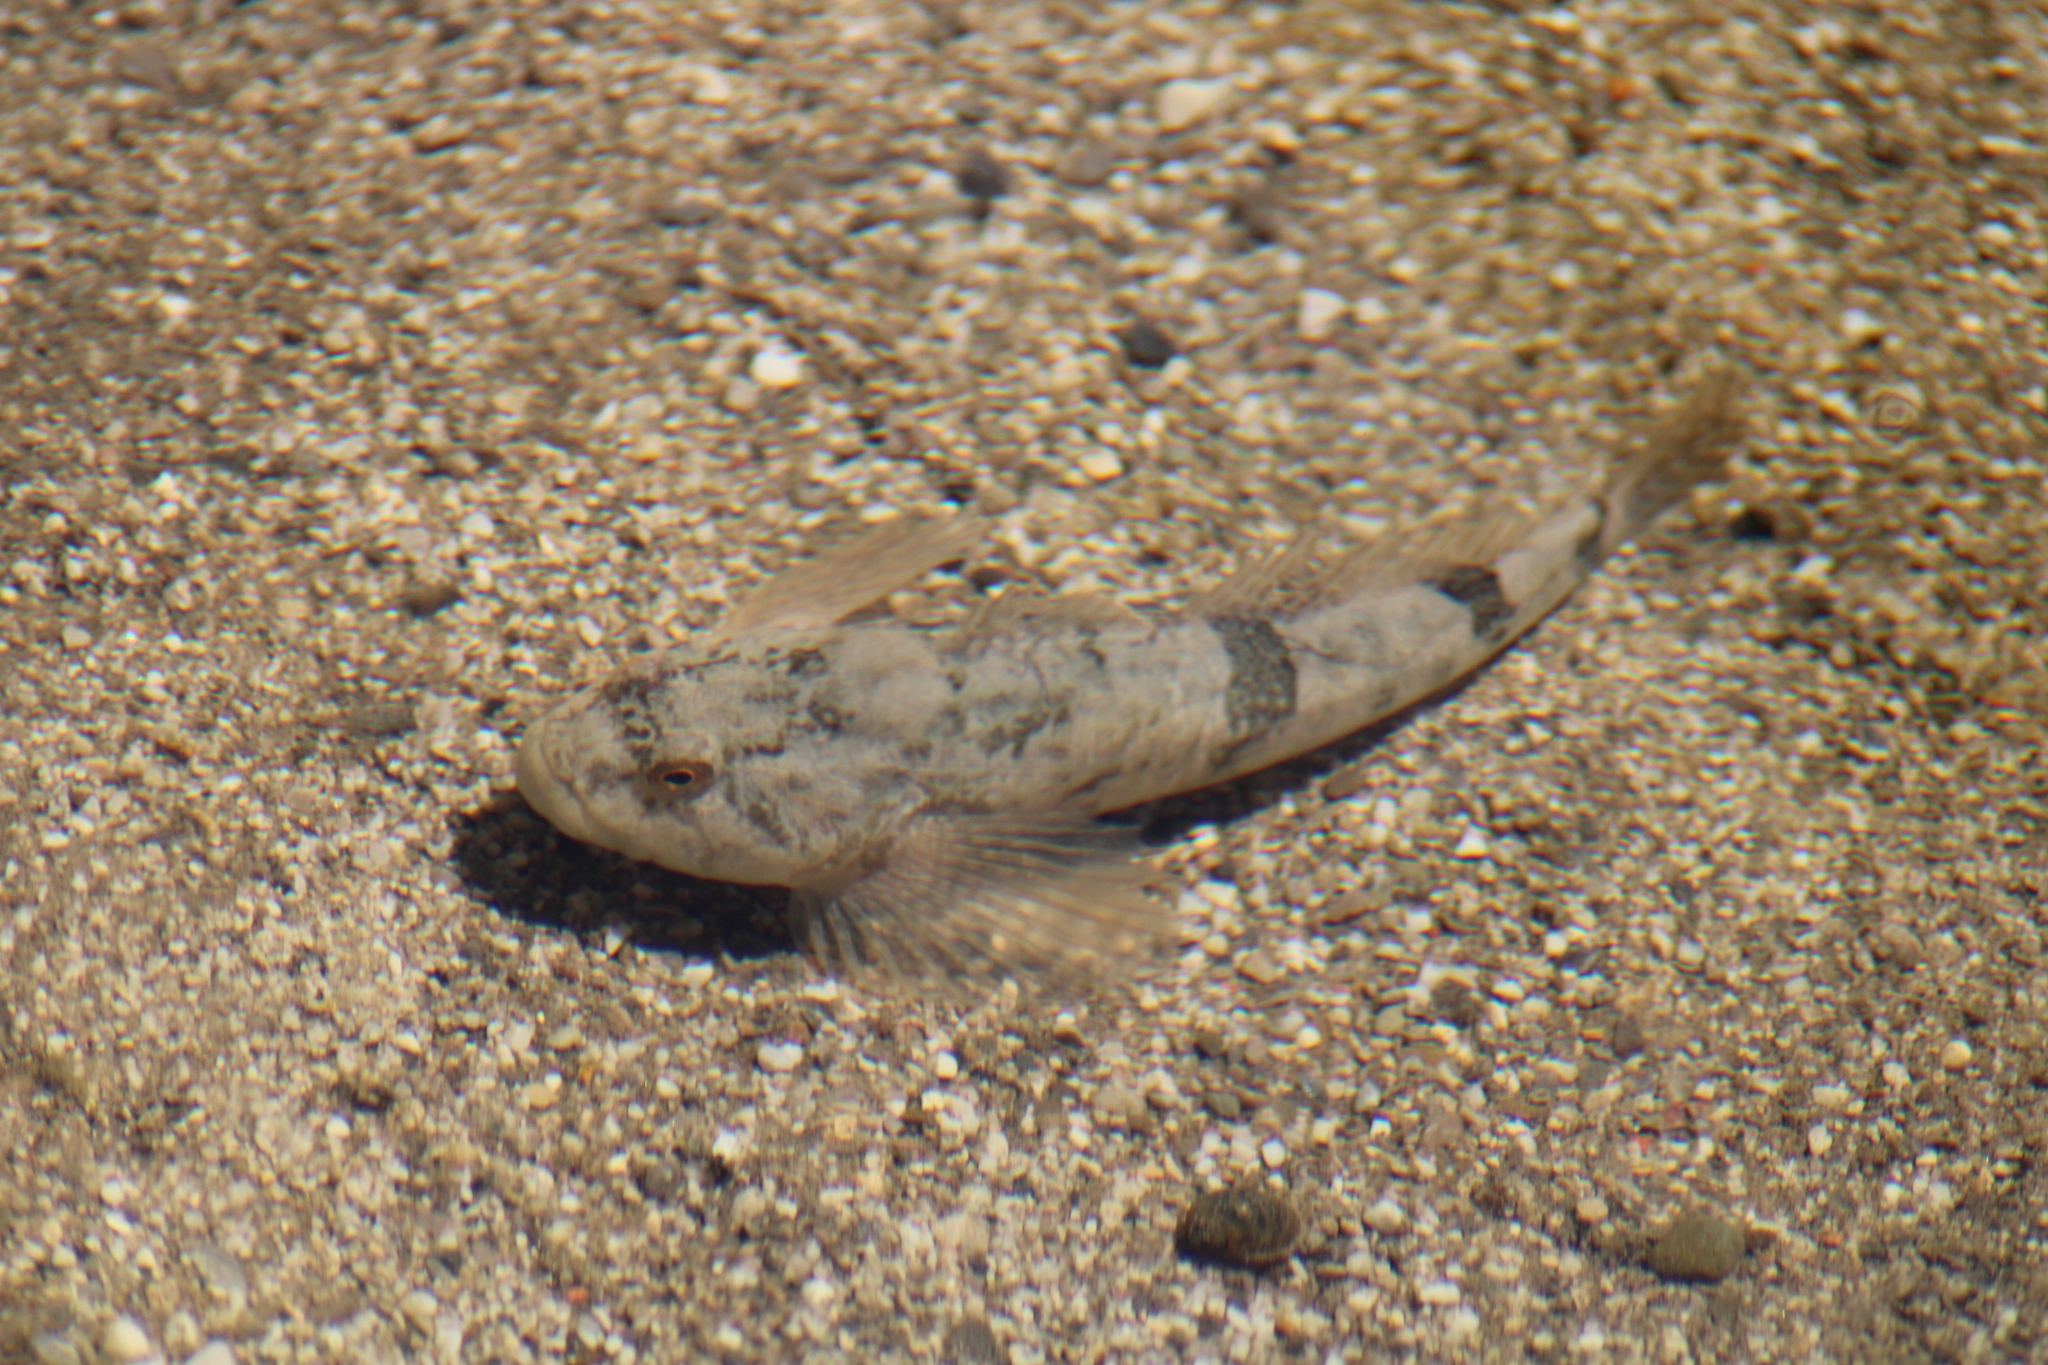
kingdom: Animalia
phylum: Chordata
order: Scorpaeniformes
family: Cottidae
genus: Cottus
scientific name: Cottus gobio
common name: Bullhead
